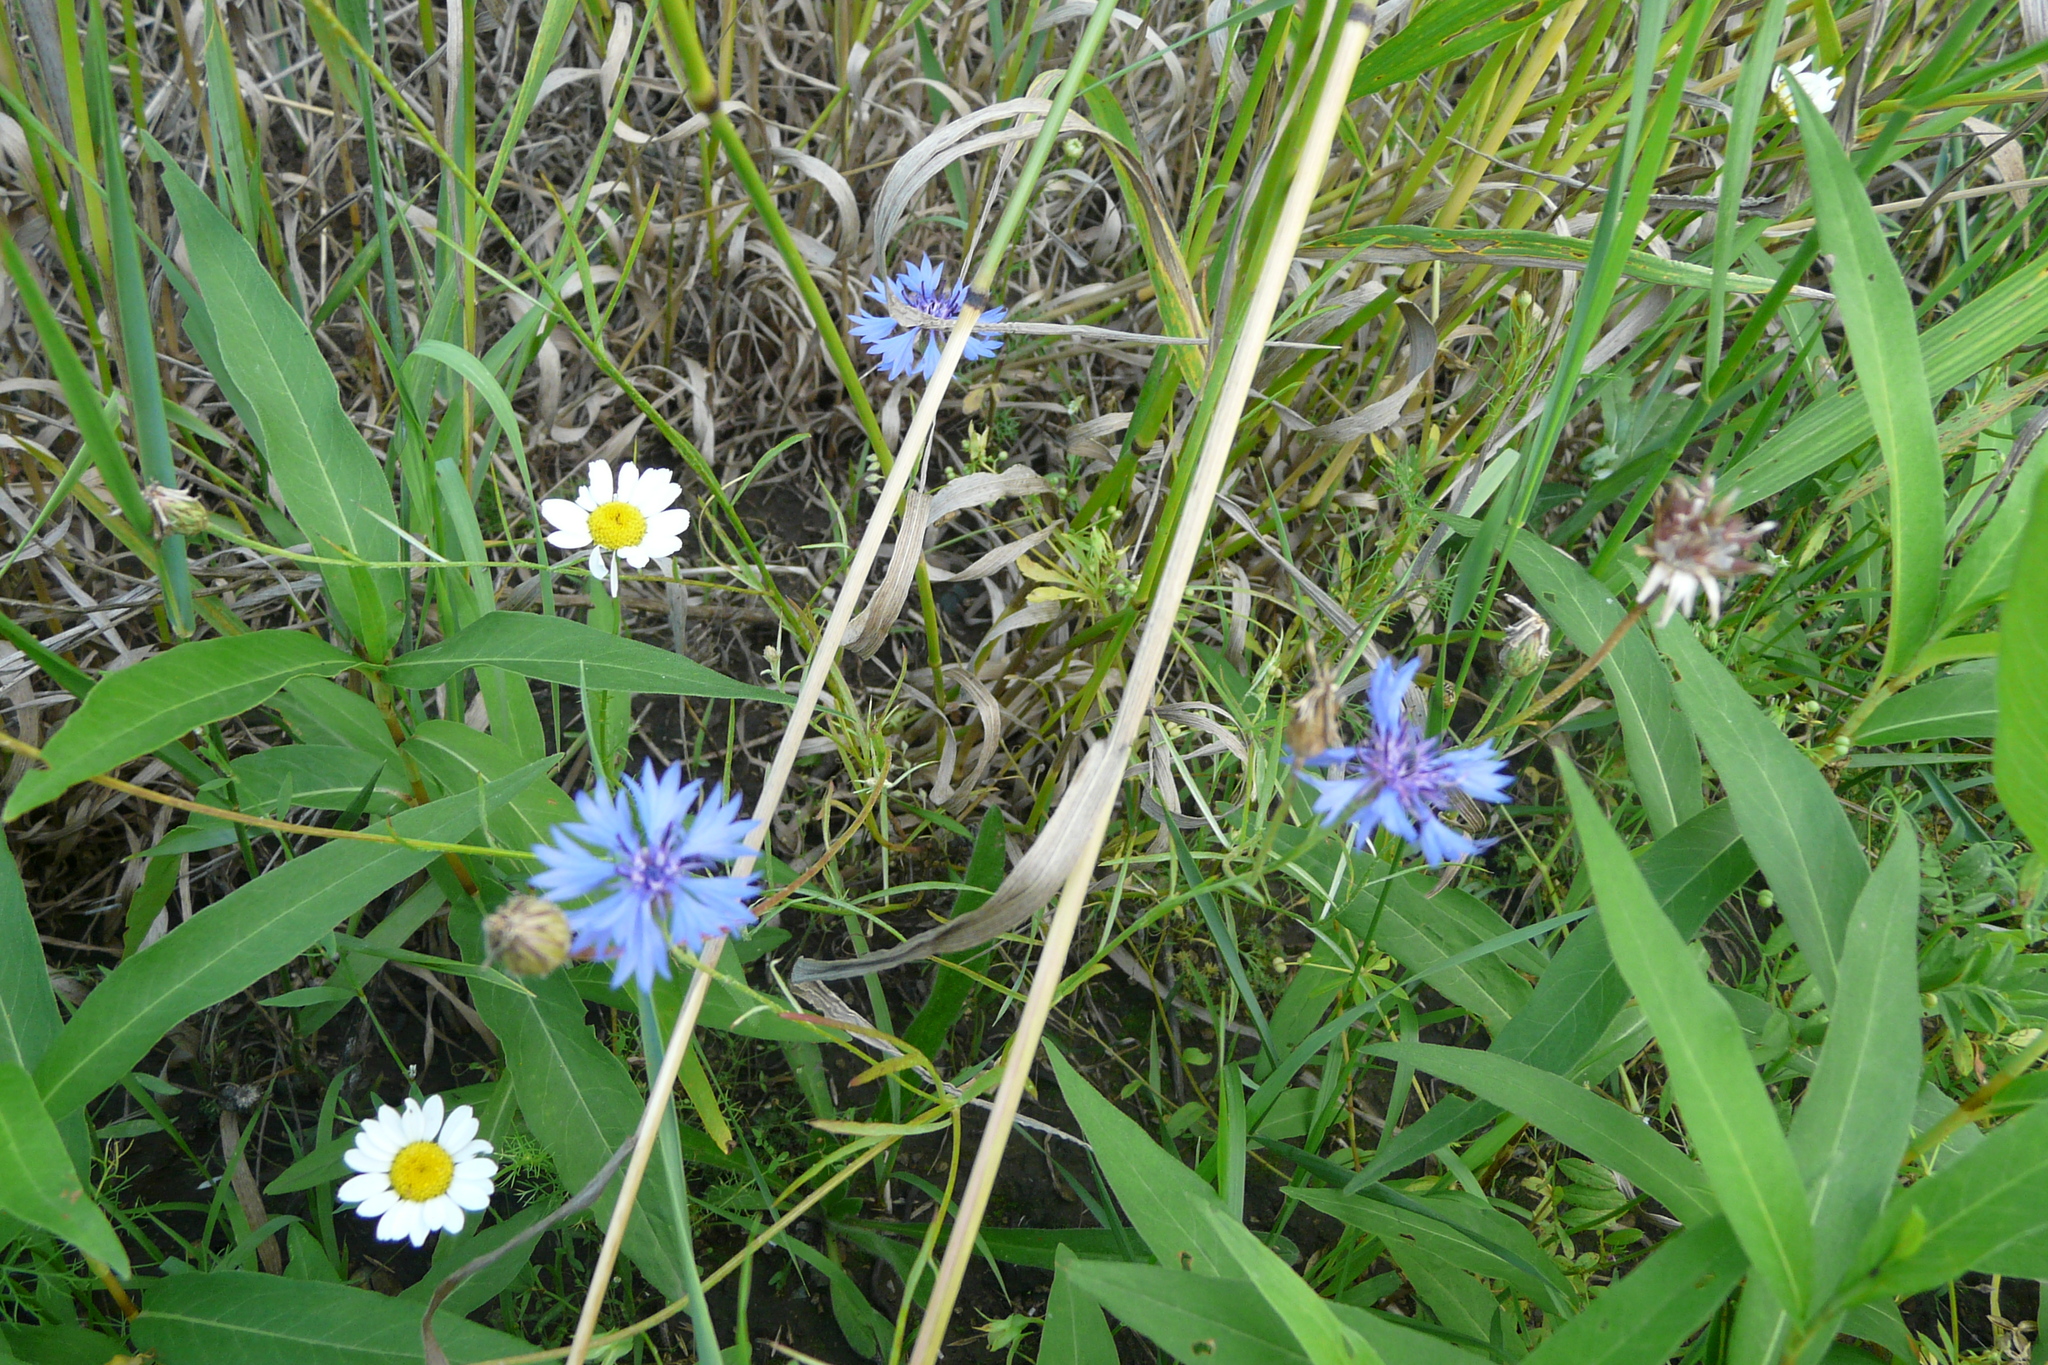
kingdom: Plantae
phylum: Tracheophyta
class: Magnoliopsida
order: Asterales
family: Asteraceae
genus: Centaurea
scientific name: Centaurea cyanus
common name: Cornflower
